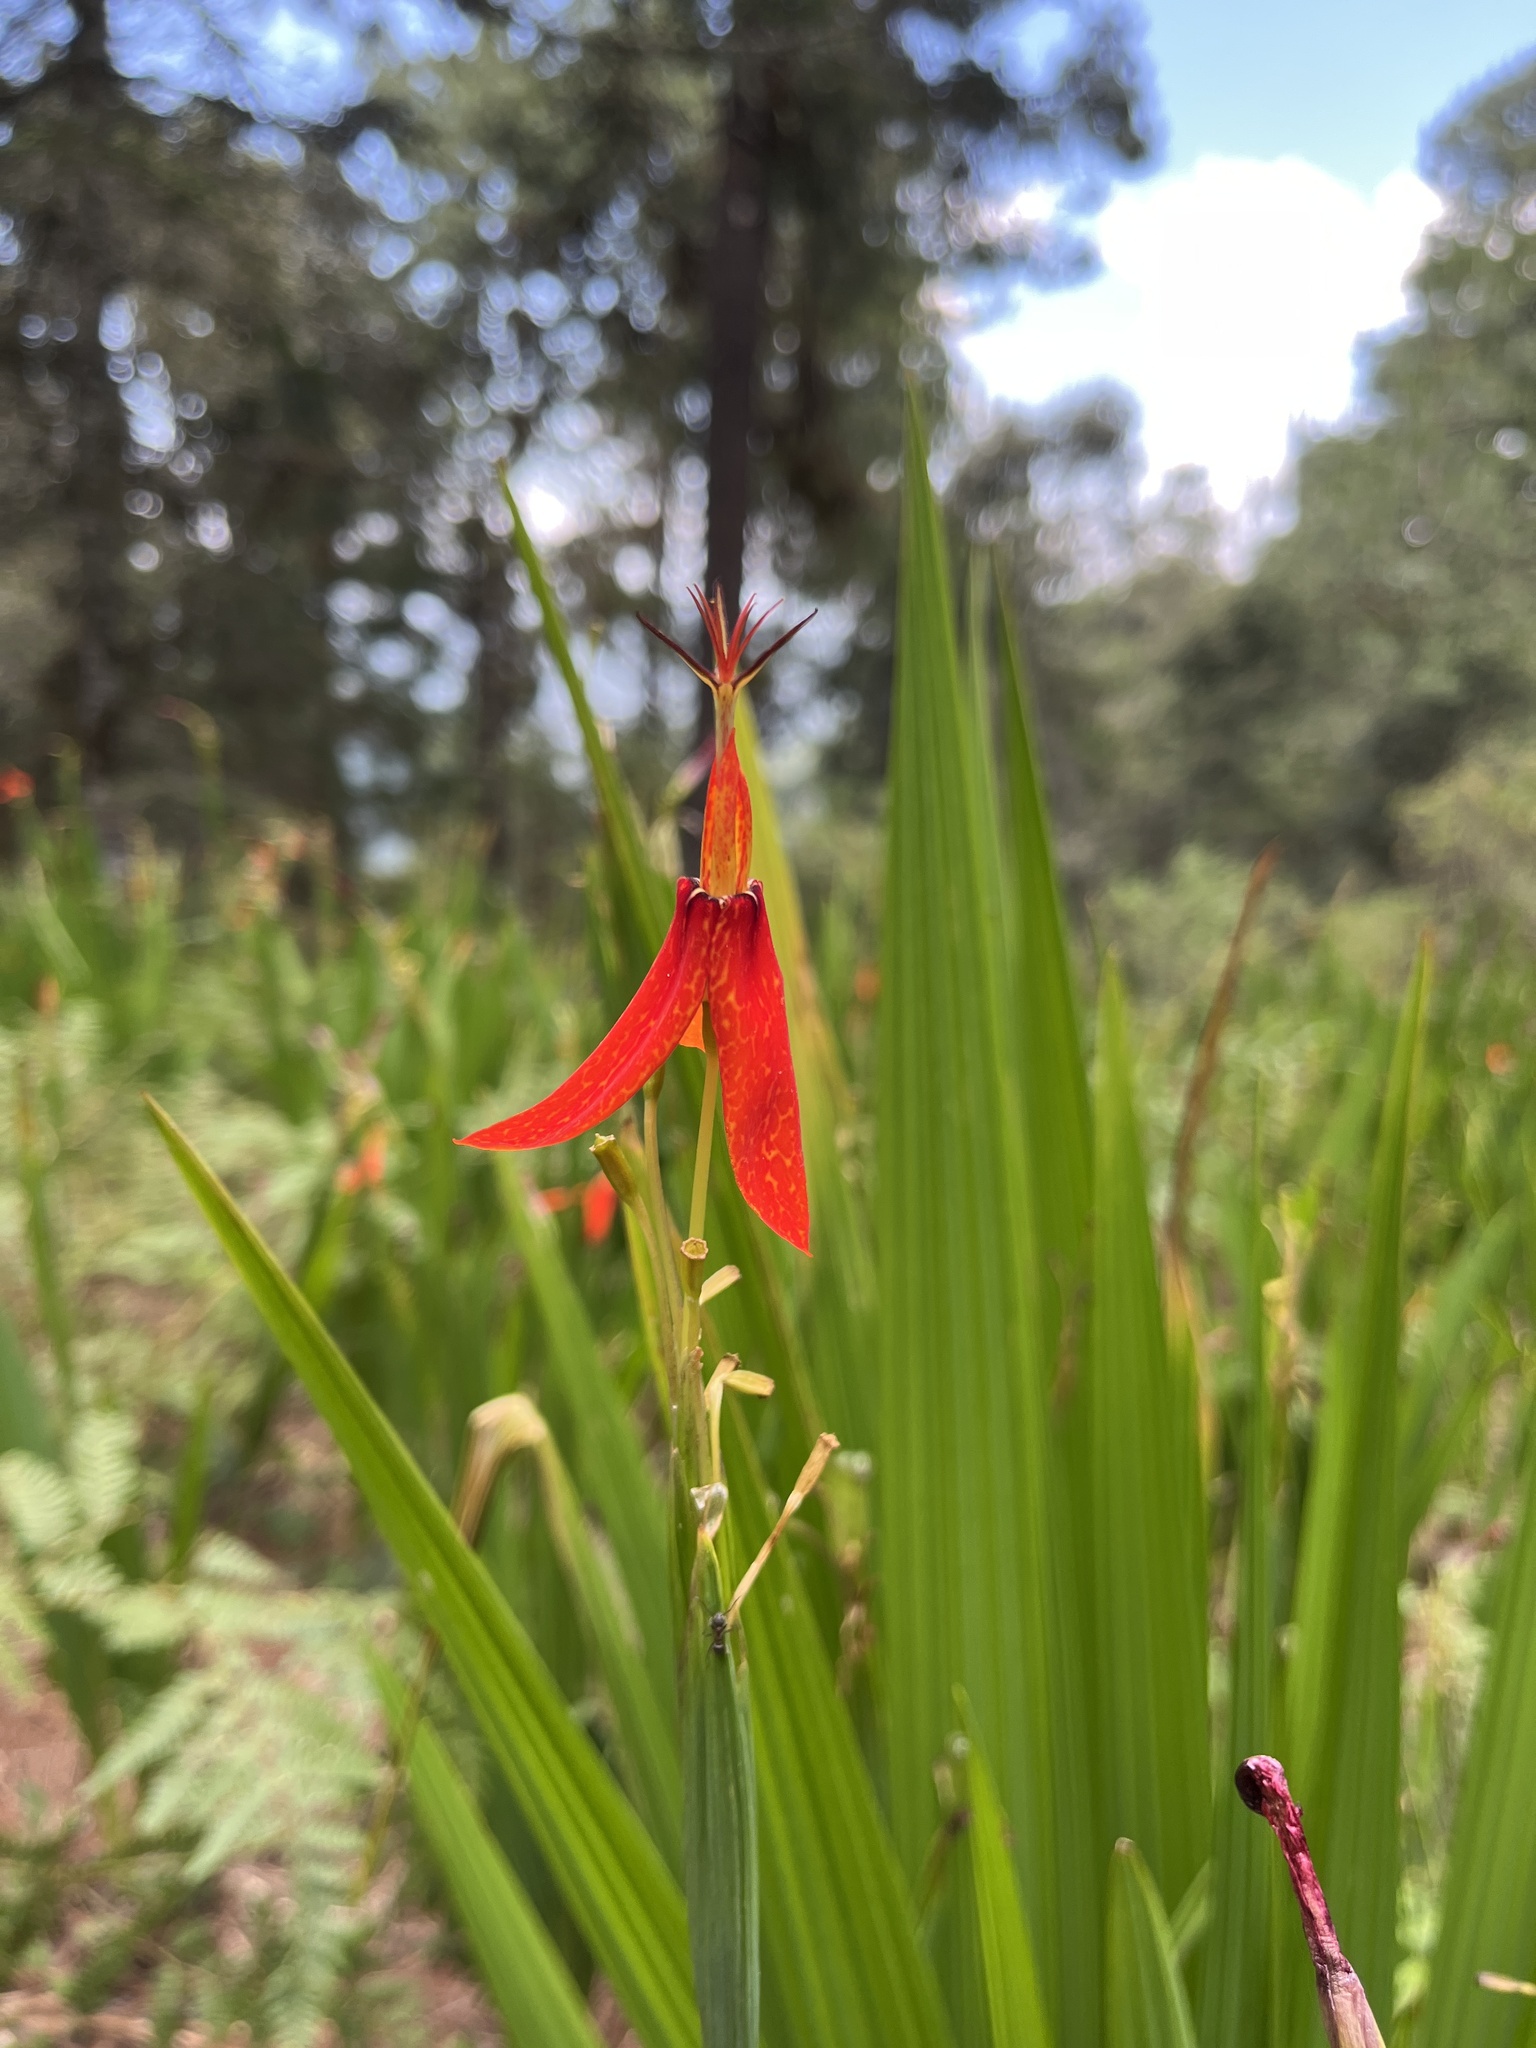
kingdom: Plantae
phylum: Tracheophyta
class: Liliopsida
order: Asparagales
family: Iridaceae
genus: Tigridia
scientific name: Tigridia orthantha
